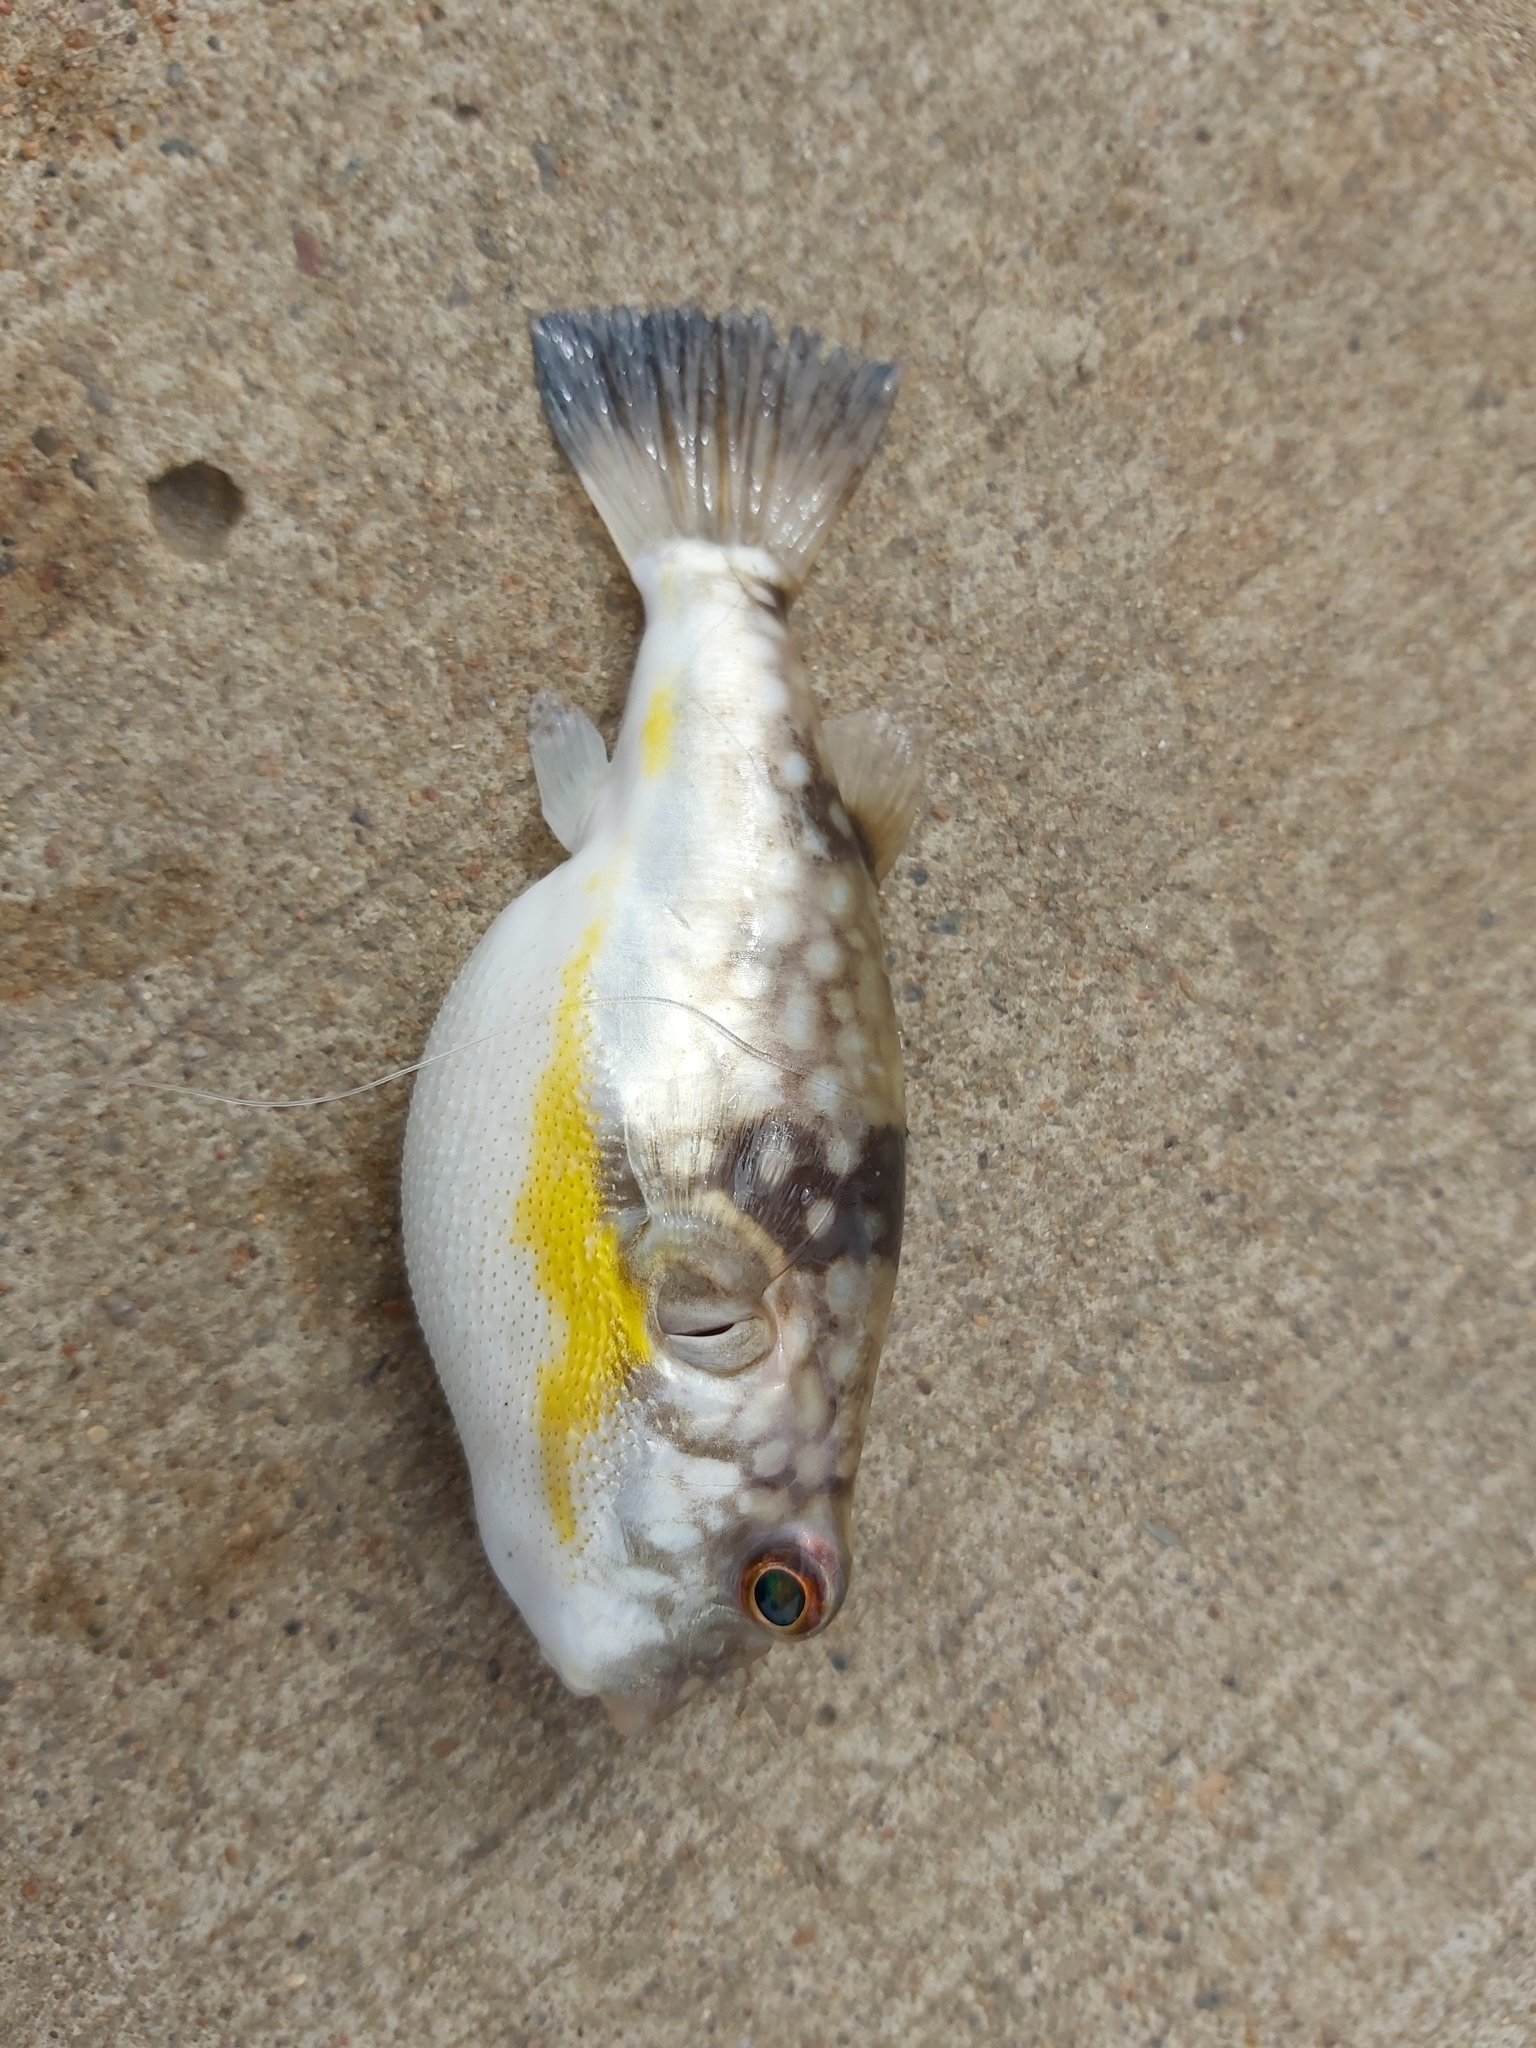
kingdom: Animalia
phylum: Chordata
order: Tetraodontiformes
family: Tetraodontidae
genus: Chelonodontops
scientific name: Chelonodontops patoca
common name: Gangetic blow fish
